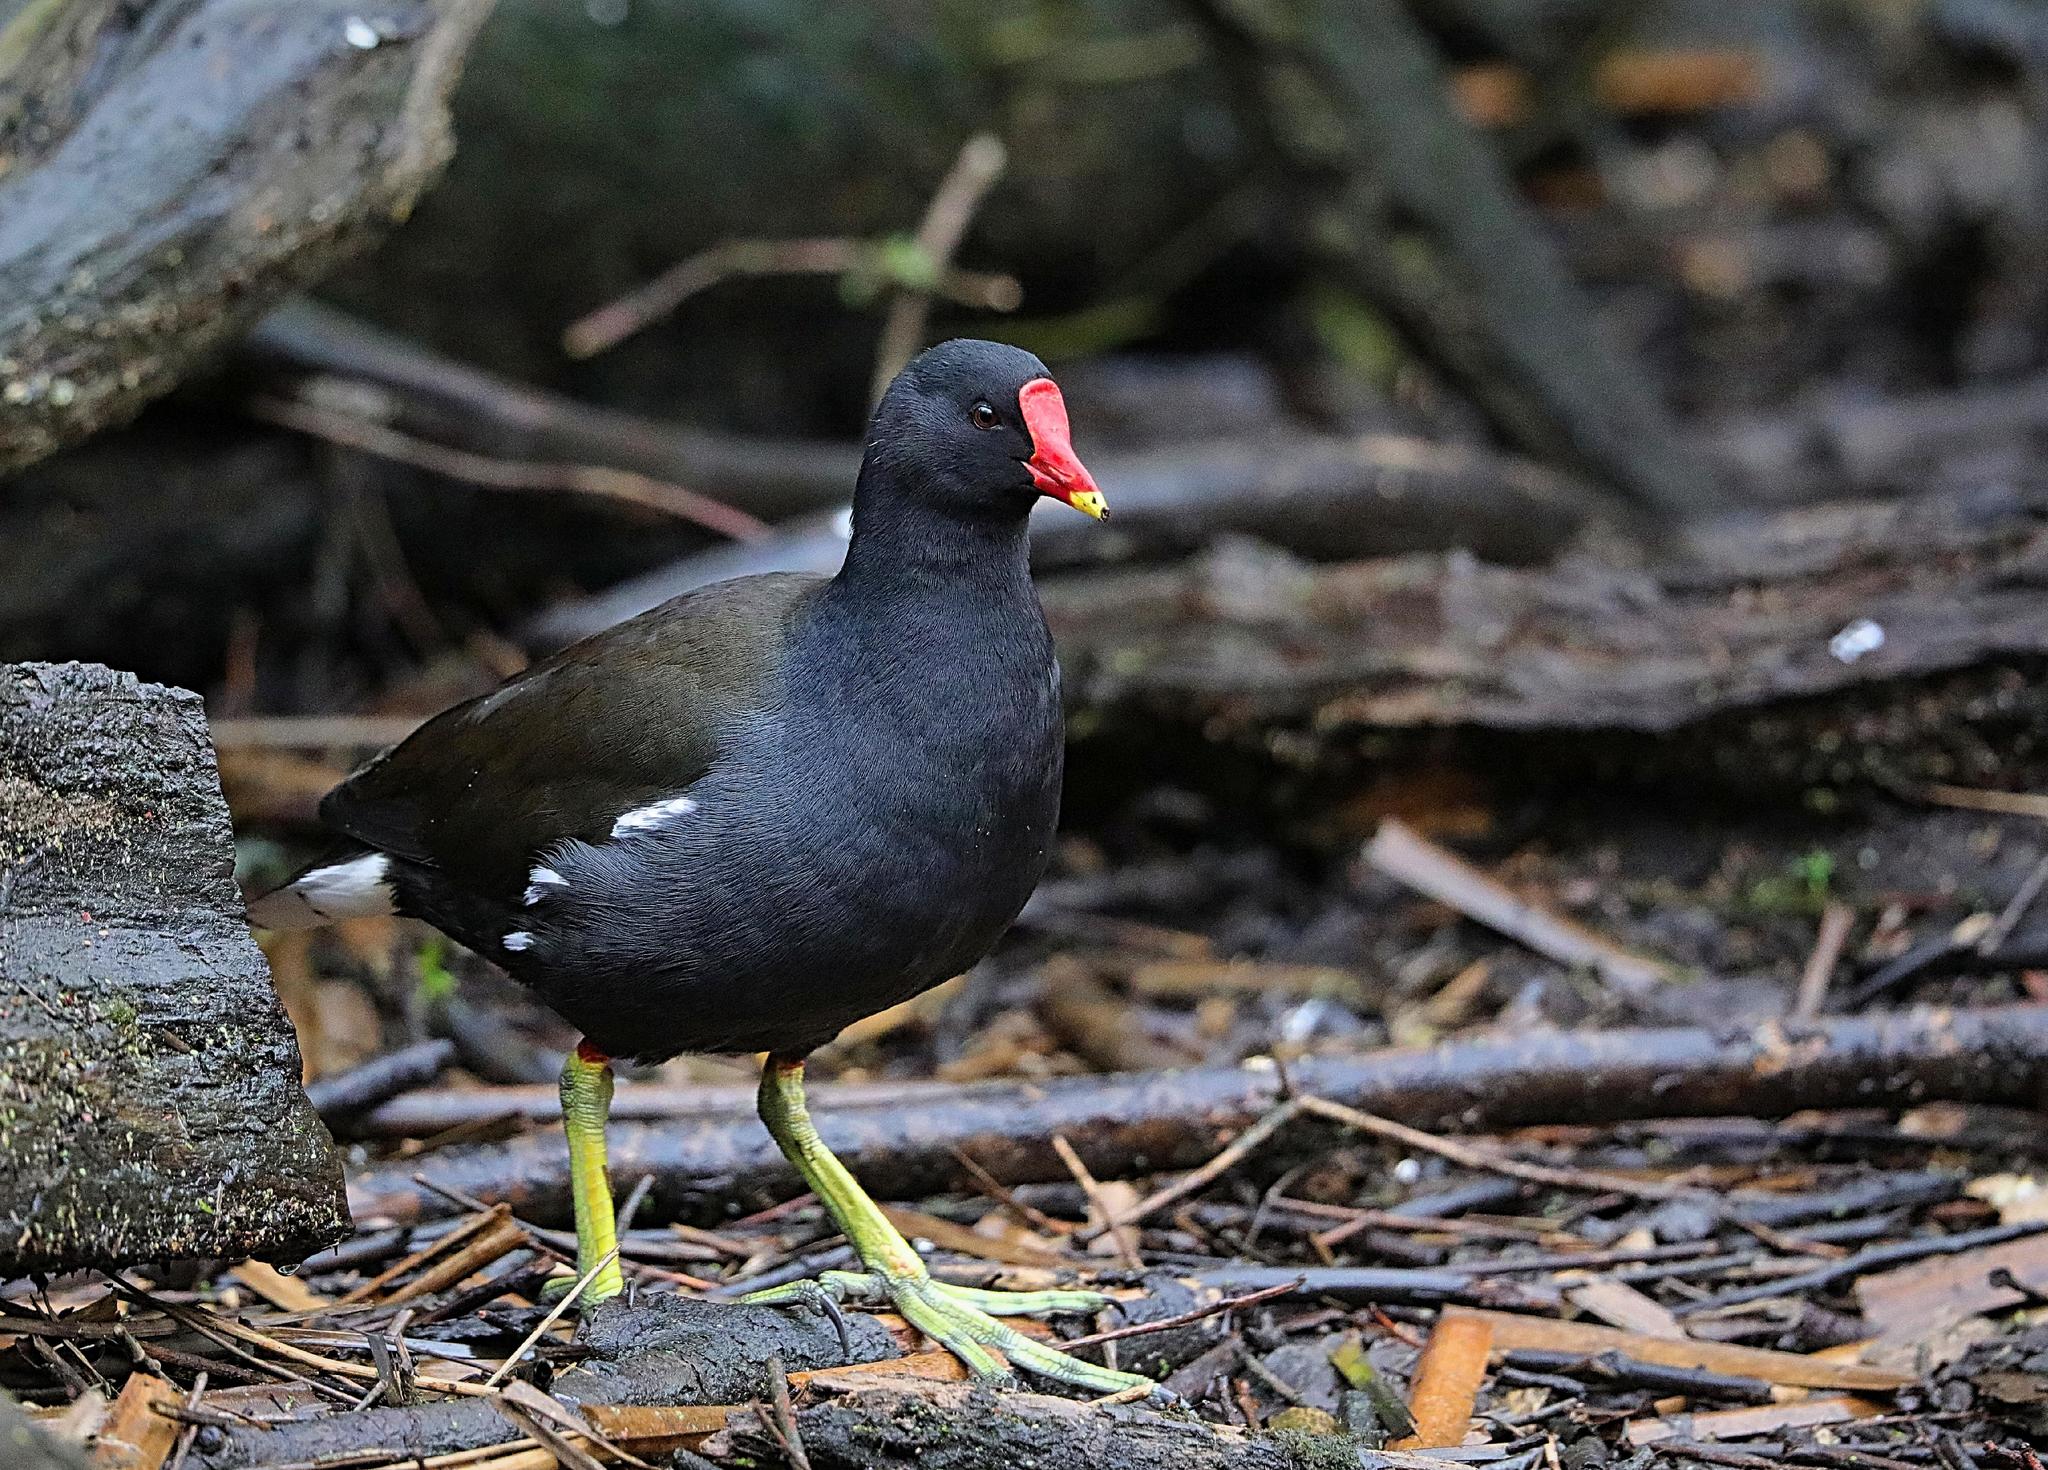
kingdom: Animalia
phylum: Chordata
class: Aves
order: Gruiformes
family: Rallidae
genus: Gallinula
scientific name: Gallinula chloropus
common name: Common moorhen
